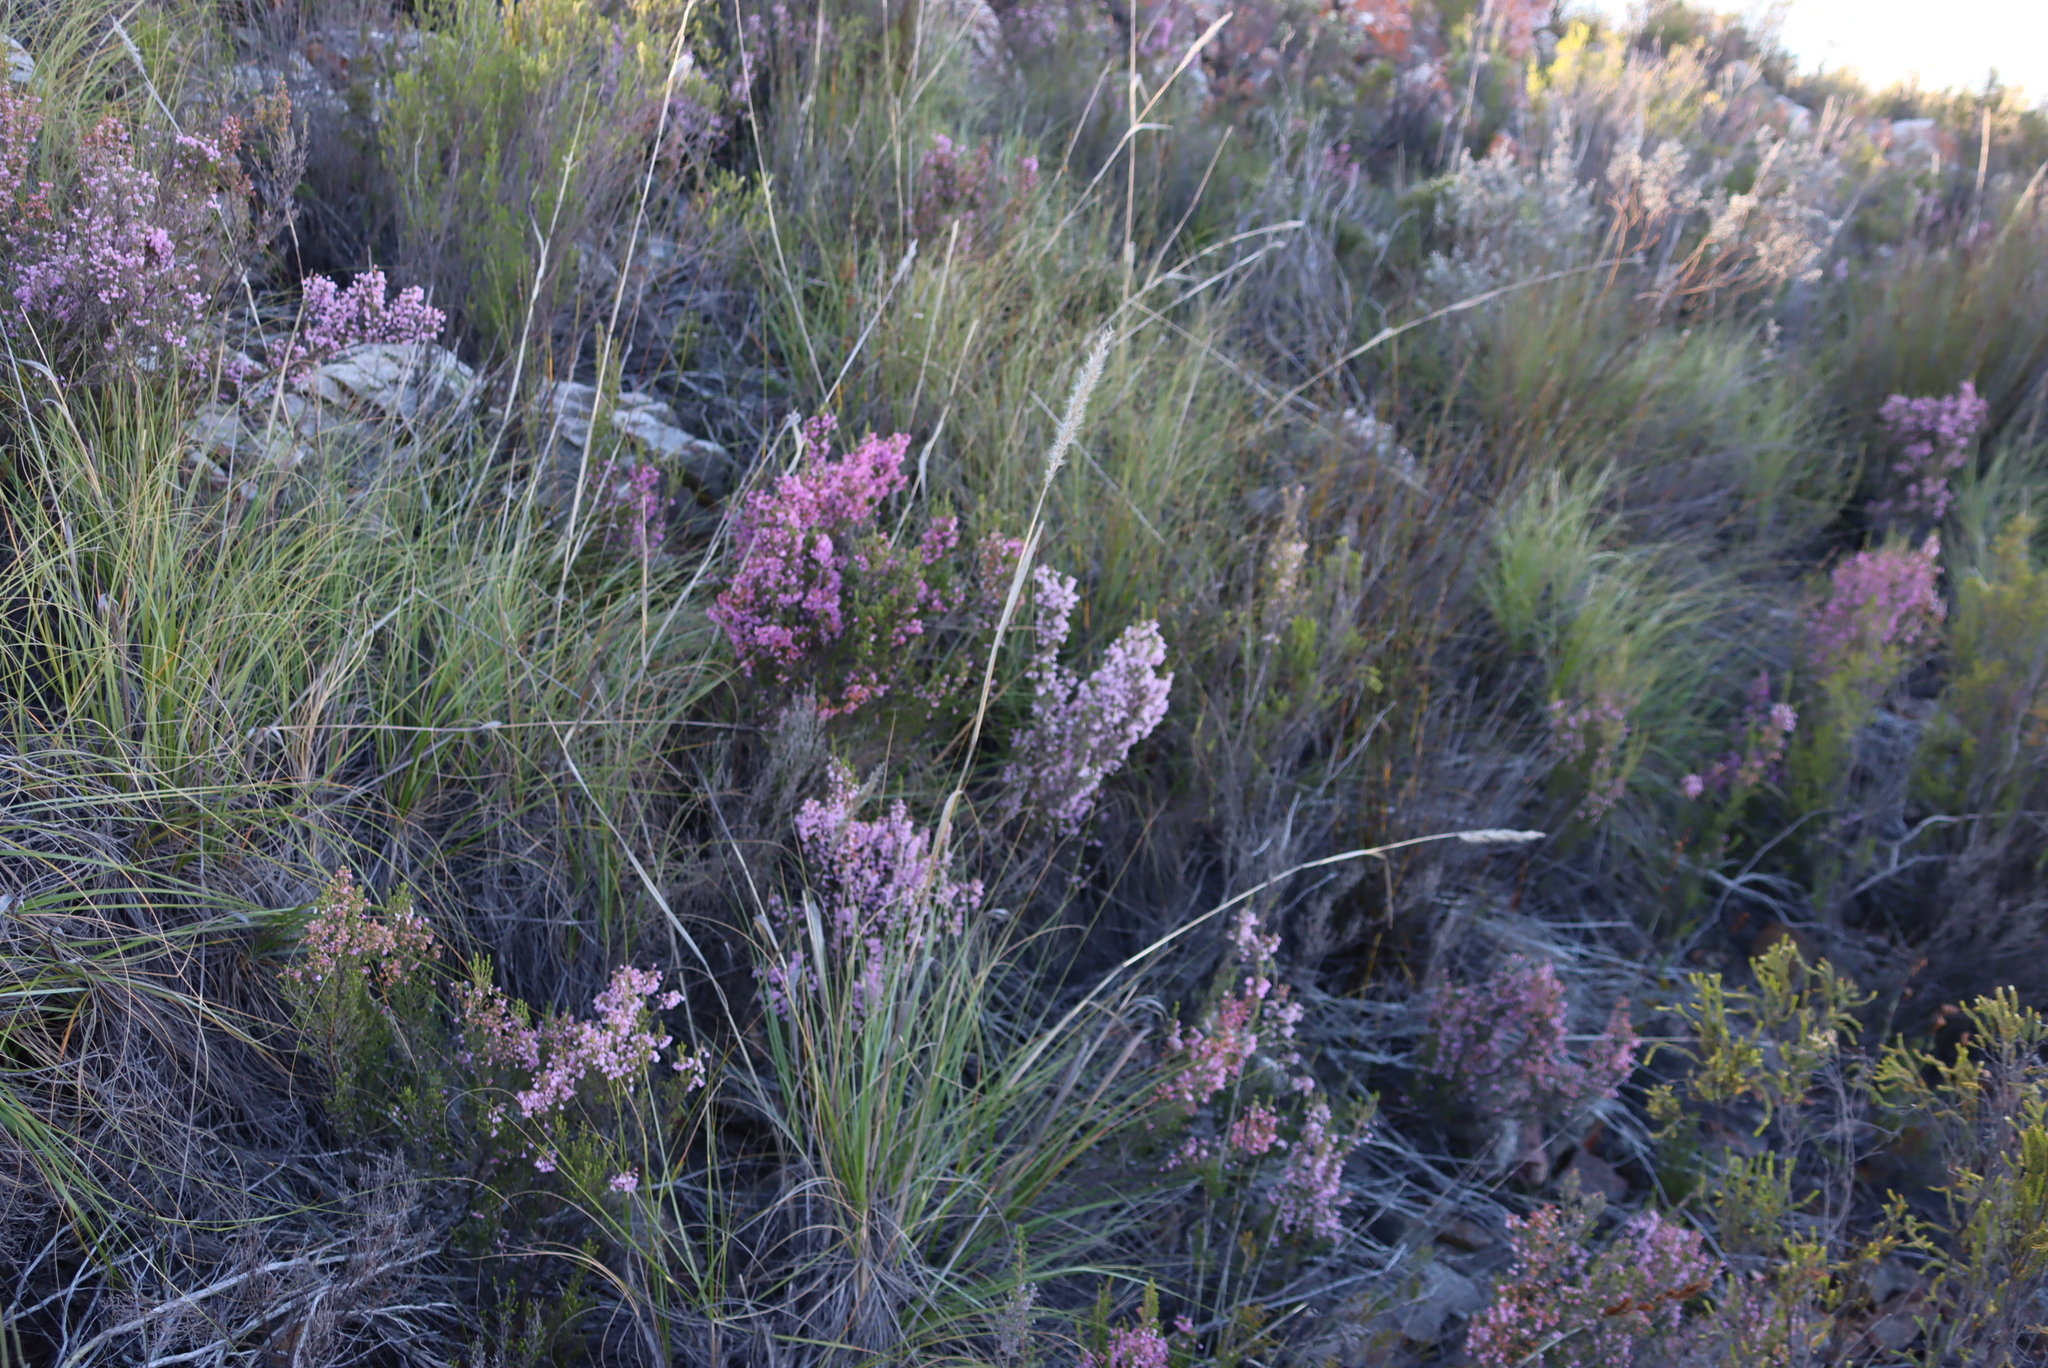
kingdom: Plantae
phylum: Tracheophyta
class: Magnoliopsida
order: Ericales
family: Ericaceae
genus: Erica
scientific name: Erica newdigatei
